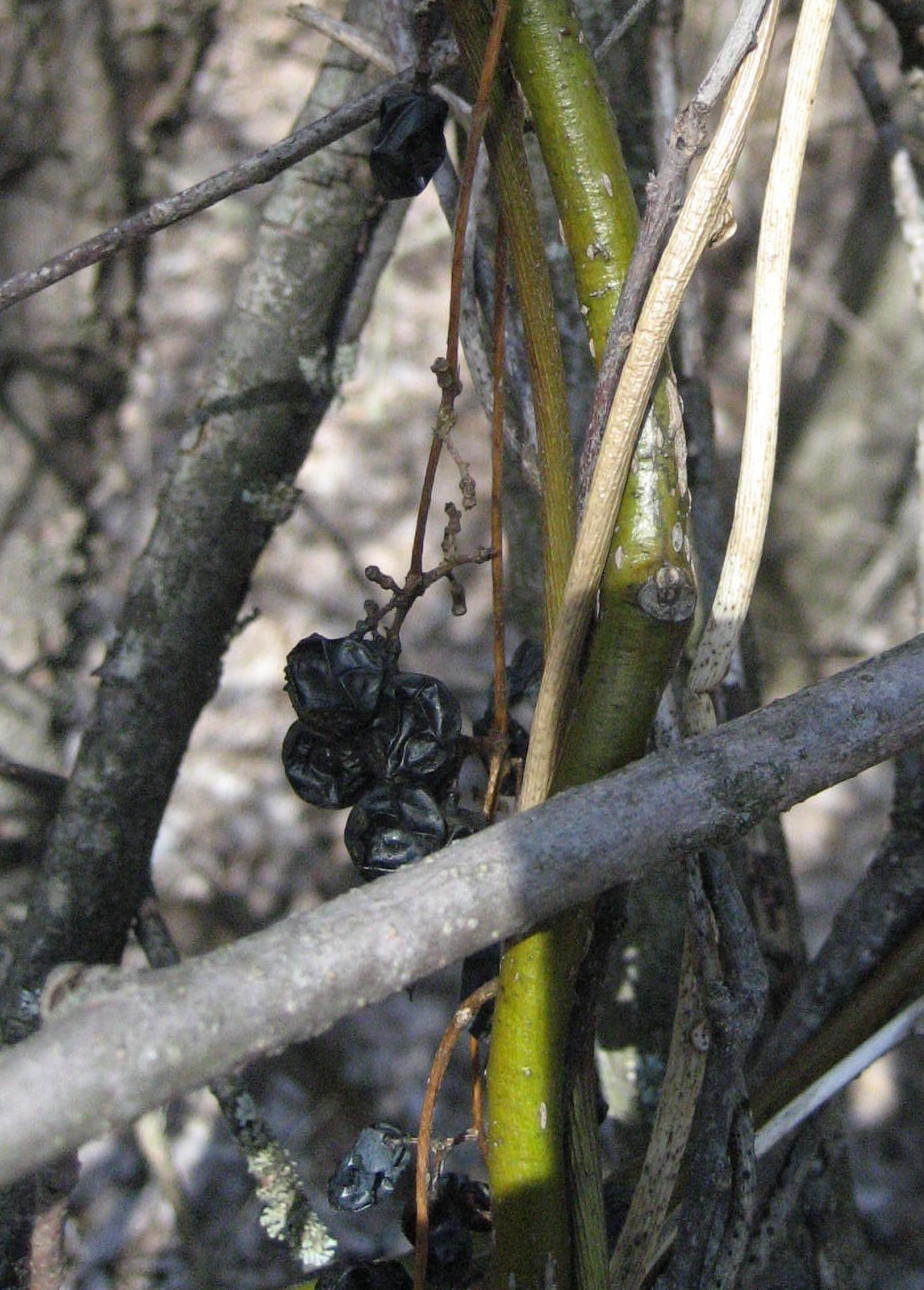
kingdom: Plantae
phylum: Tracheophyta
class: Magnoliopsida
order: Ranunculales
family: Menispermaceae
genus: Menispermum
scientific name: Menispermum canadense
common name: Moonseed
